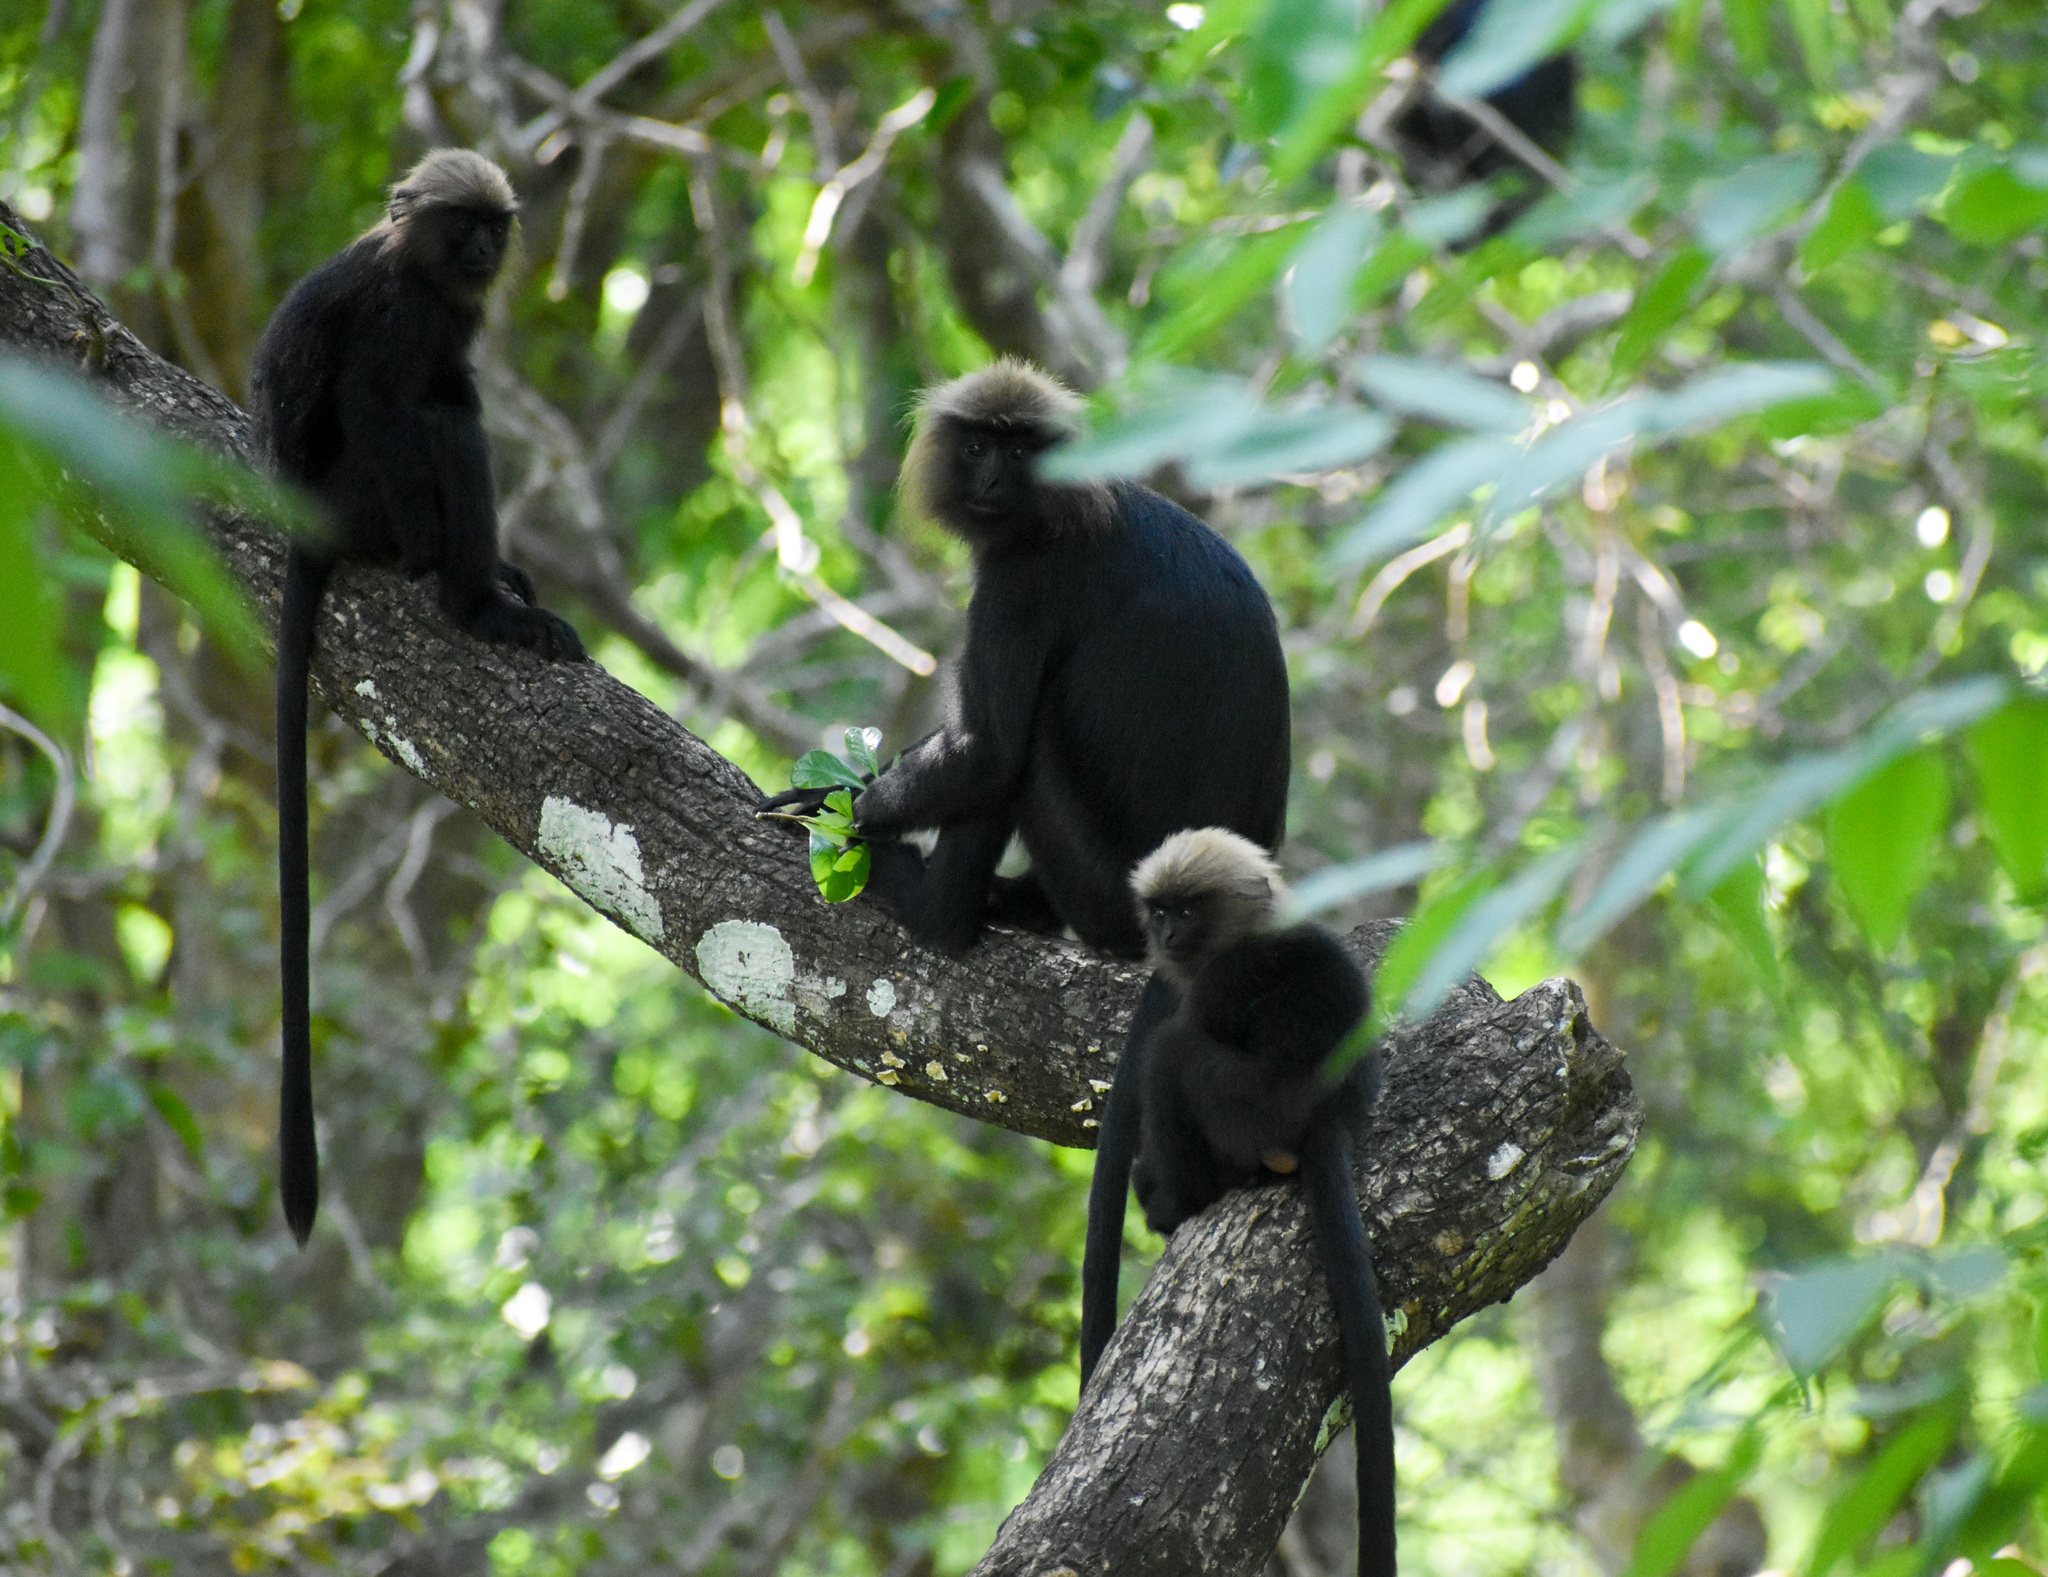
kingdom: Animalia
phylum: Chordata
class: Mammalia
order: Primates
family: Cercopithecidae
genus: Semnopithecus
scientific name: Semnopithecus johnii
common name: Nilgiri langur
